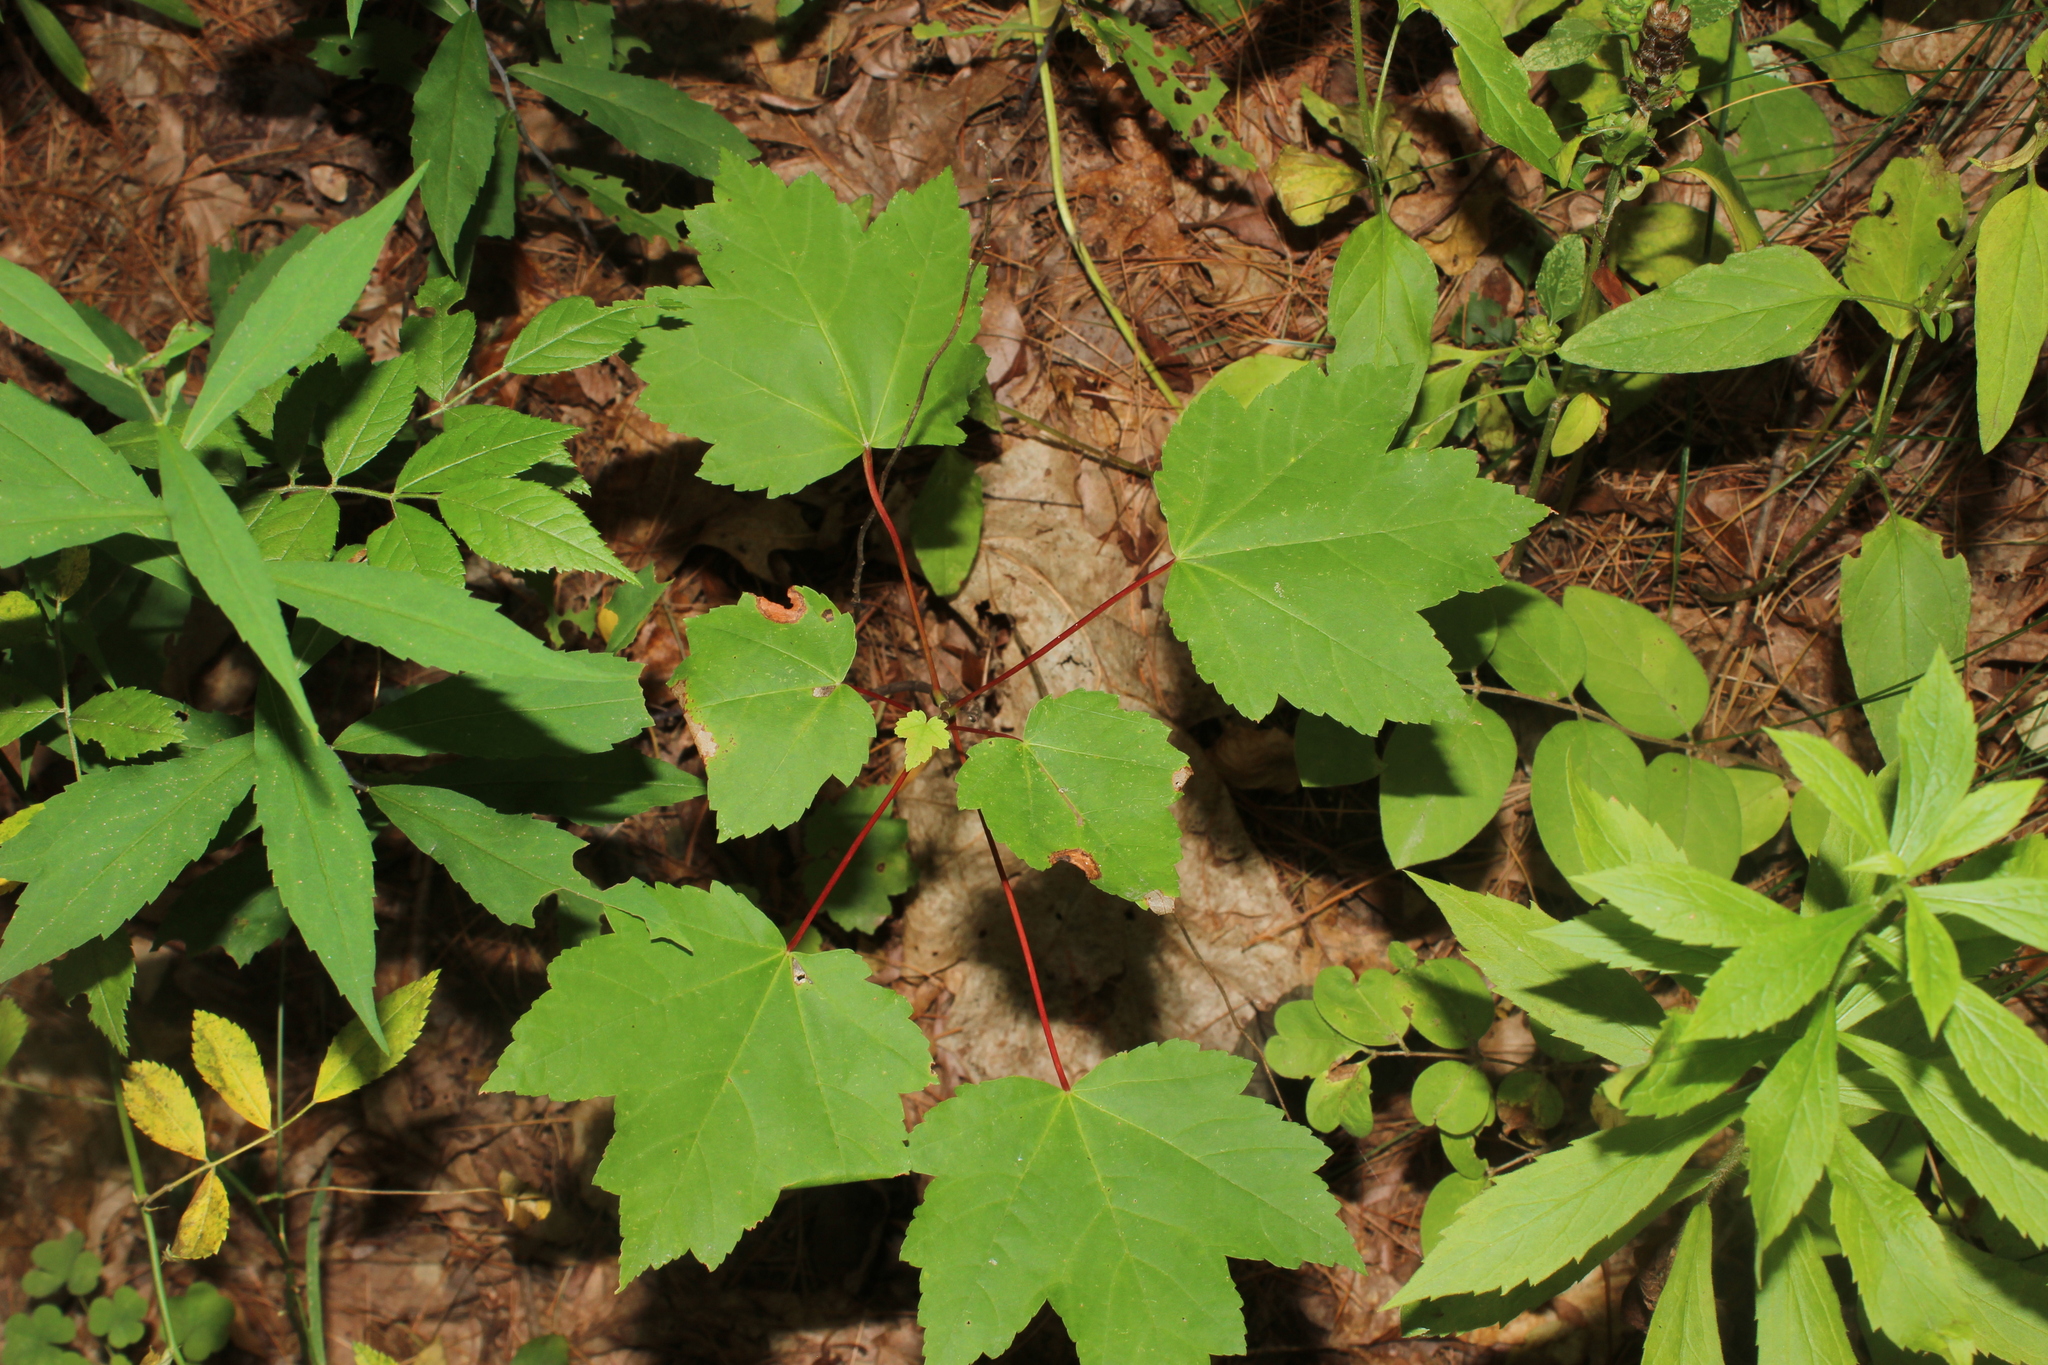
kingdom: Plantae
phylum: Tracheophyta
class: Magnoliopsida
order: Sapindales
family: Sapindaceae
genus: Acer
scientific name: Acer rubrum
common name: Red maple
